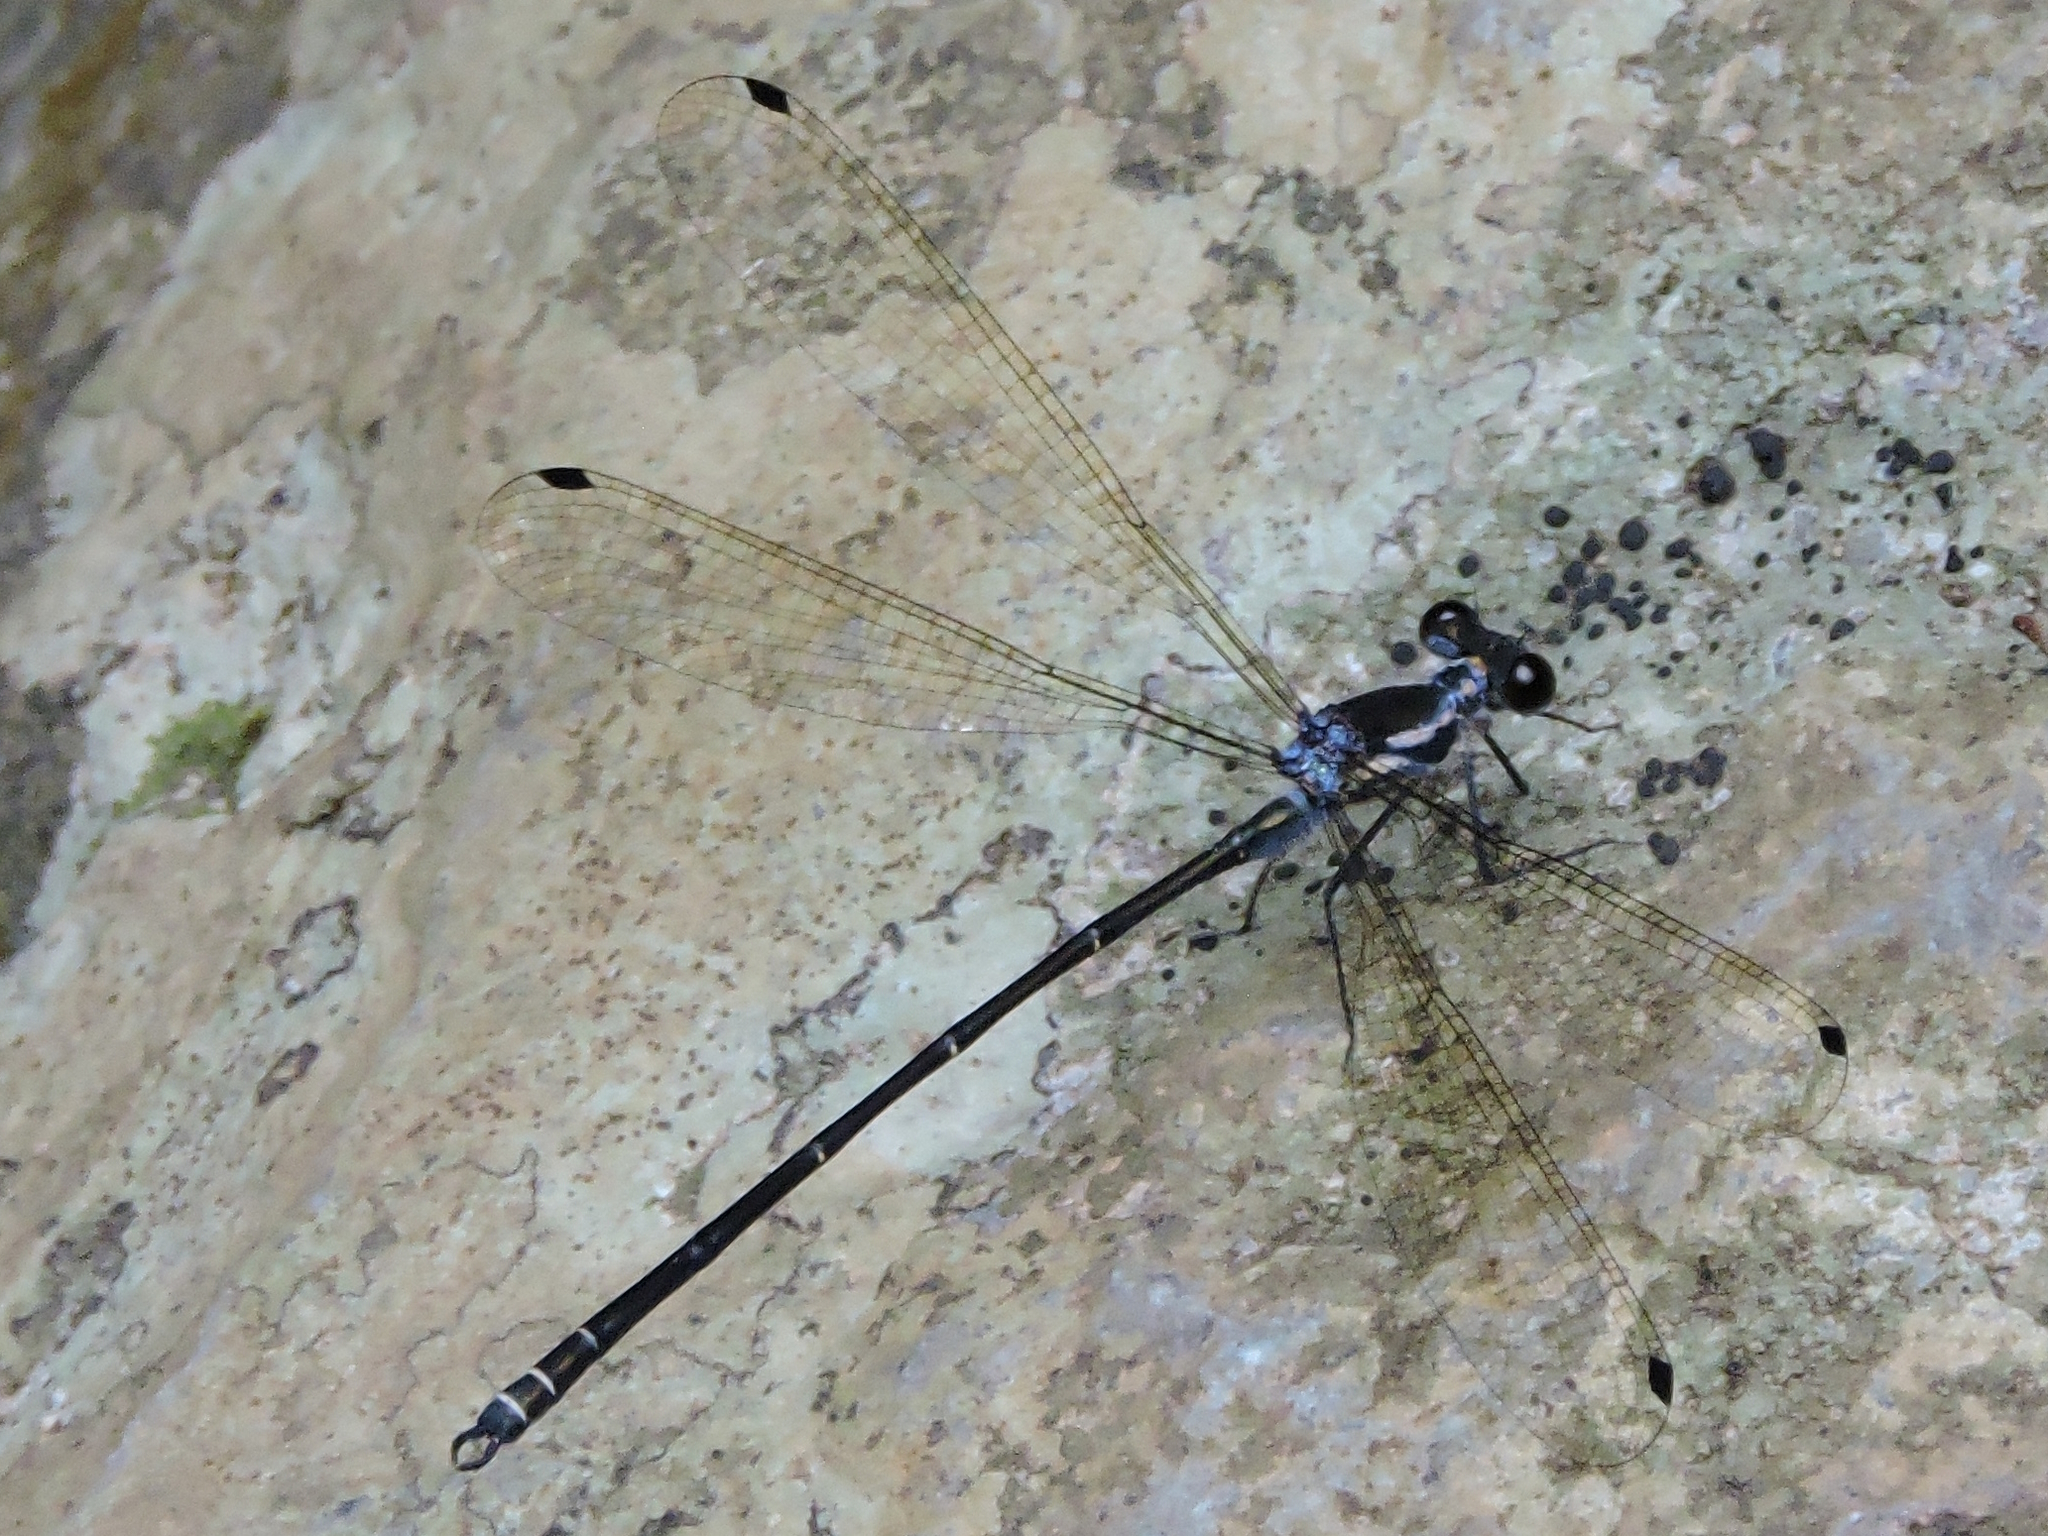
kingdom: Animalia
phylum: Arthropoda
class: Insecta
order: Odonata
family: Argiolestidae
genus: Austroargiolestes
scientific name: Austroargiolestes icteromelas
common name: Common flatwing
